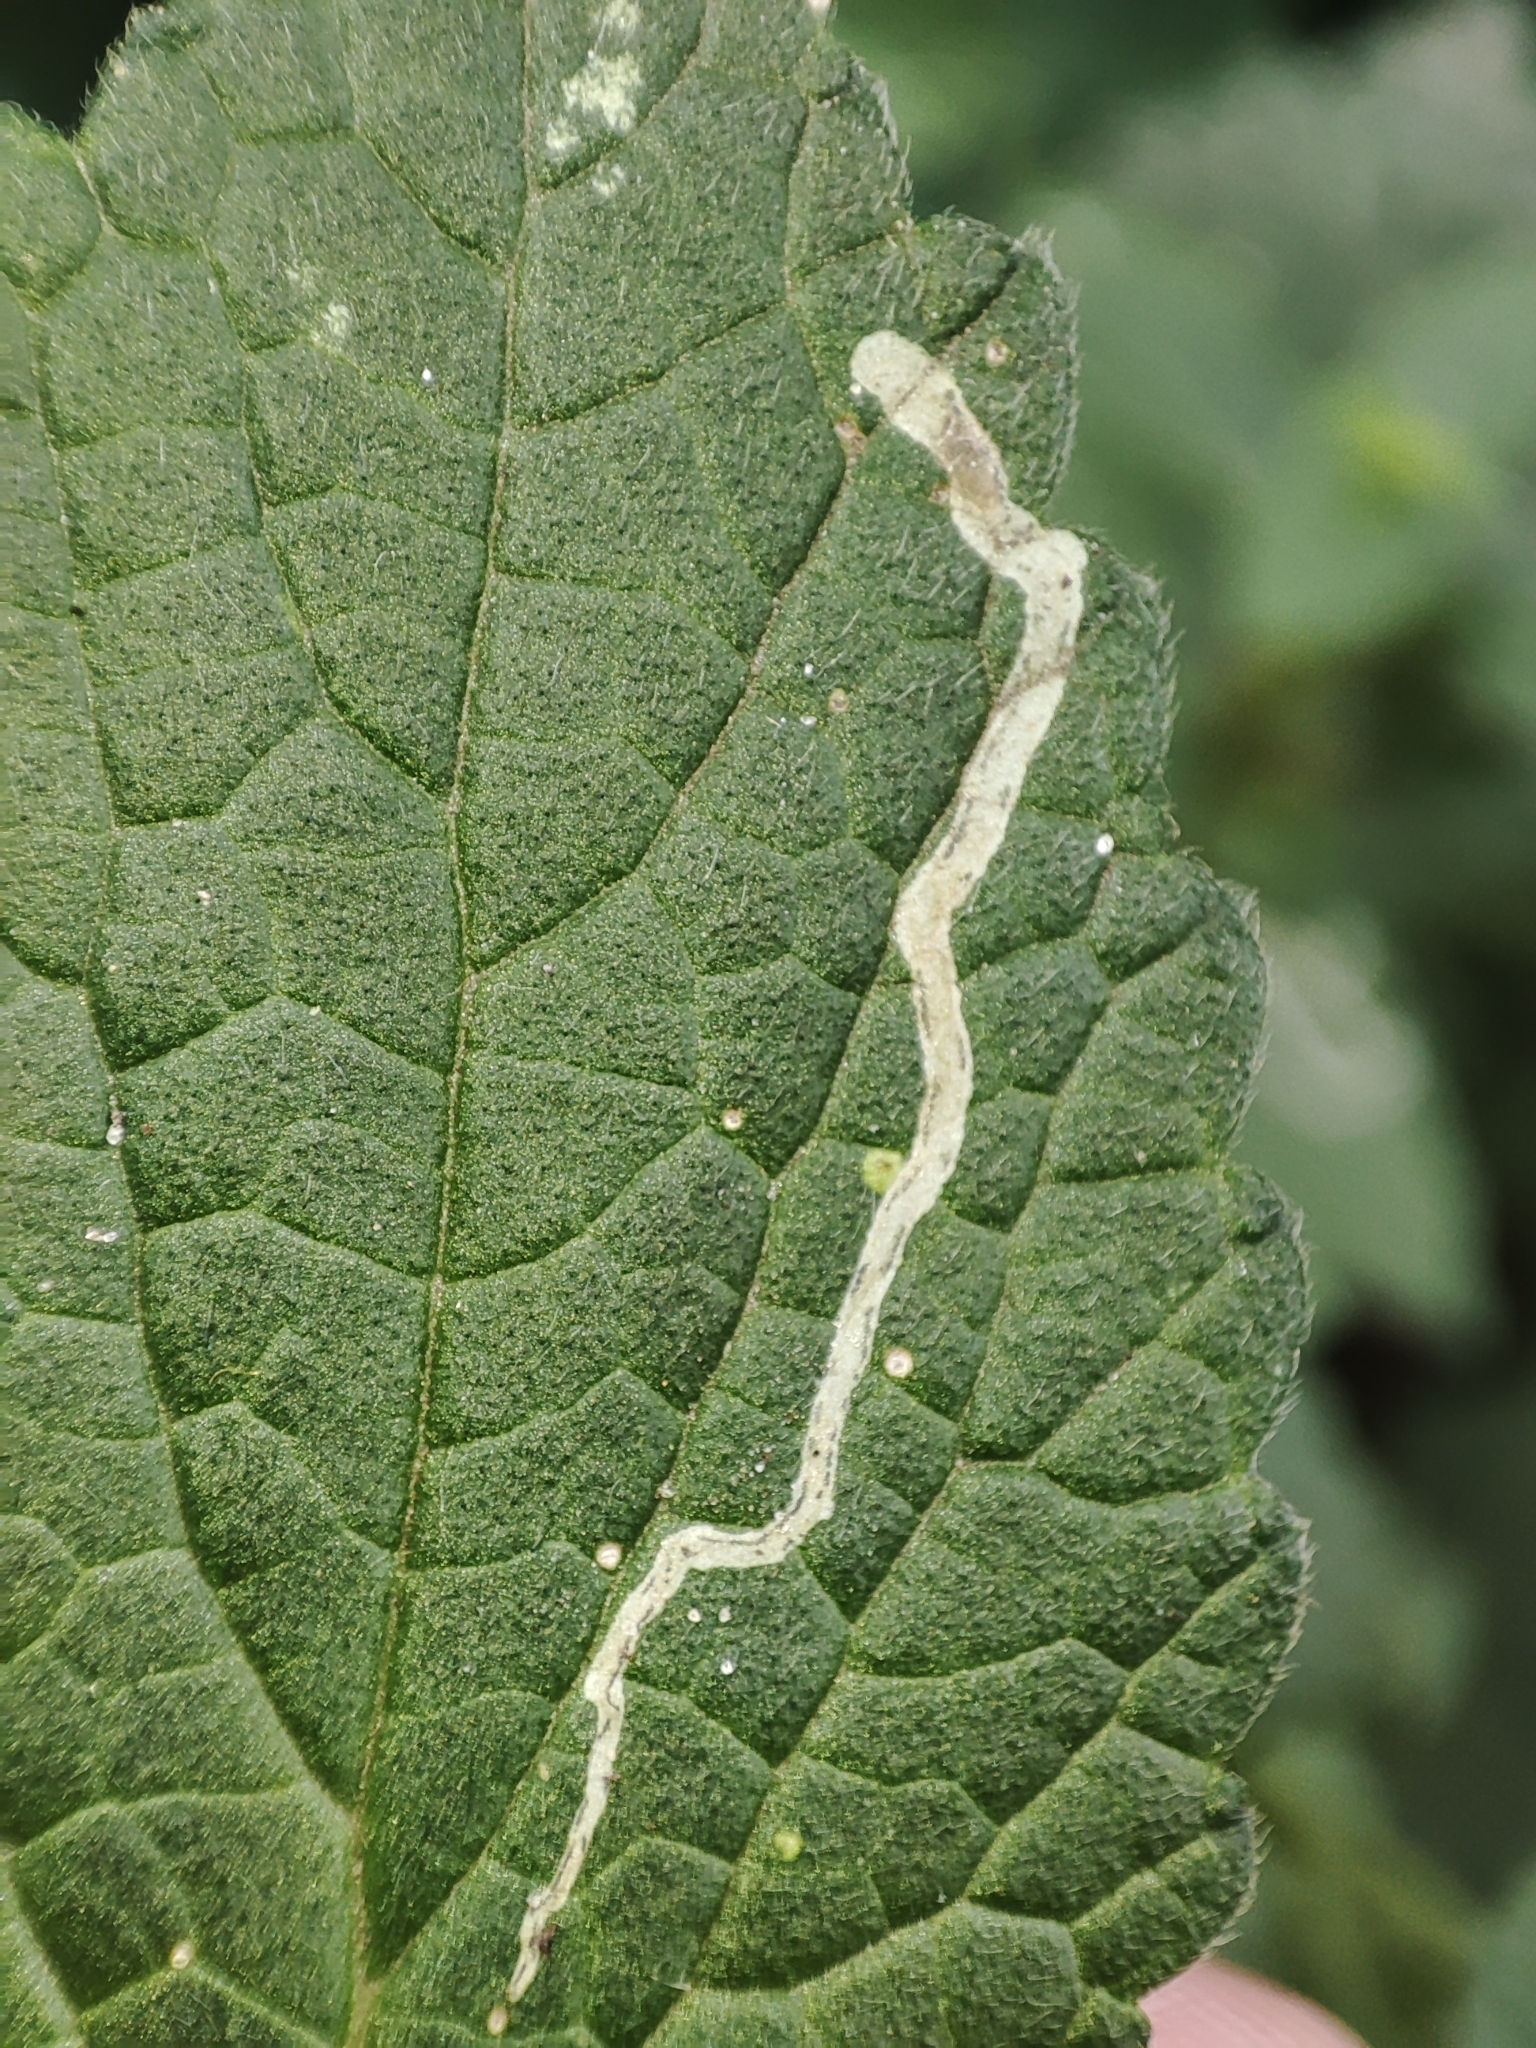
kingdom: Plantae
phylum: Tracheophyta
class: Magnoliopsida
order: Lamiales
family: Lamiaceae
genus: Ballota
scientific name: Ballota nigra
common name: Black horehound
